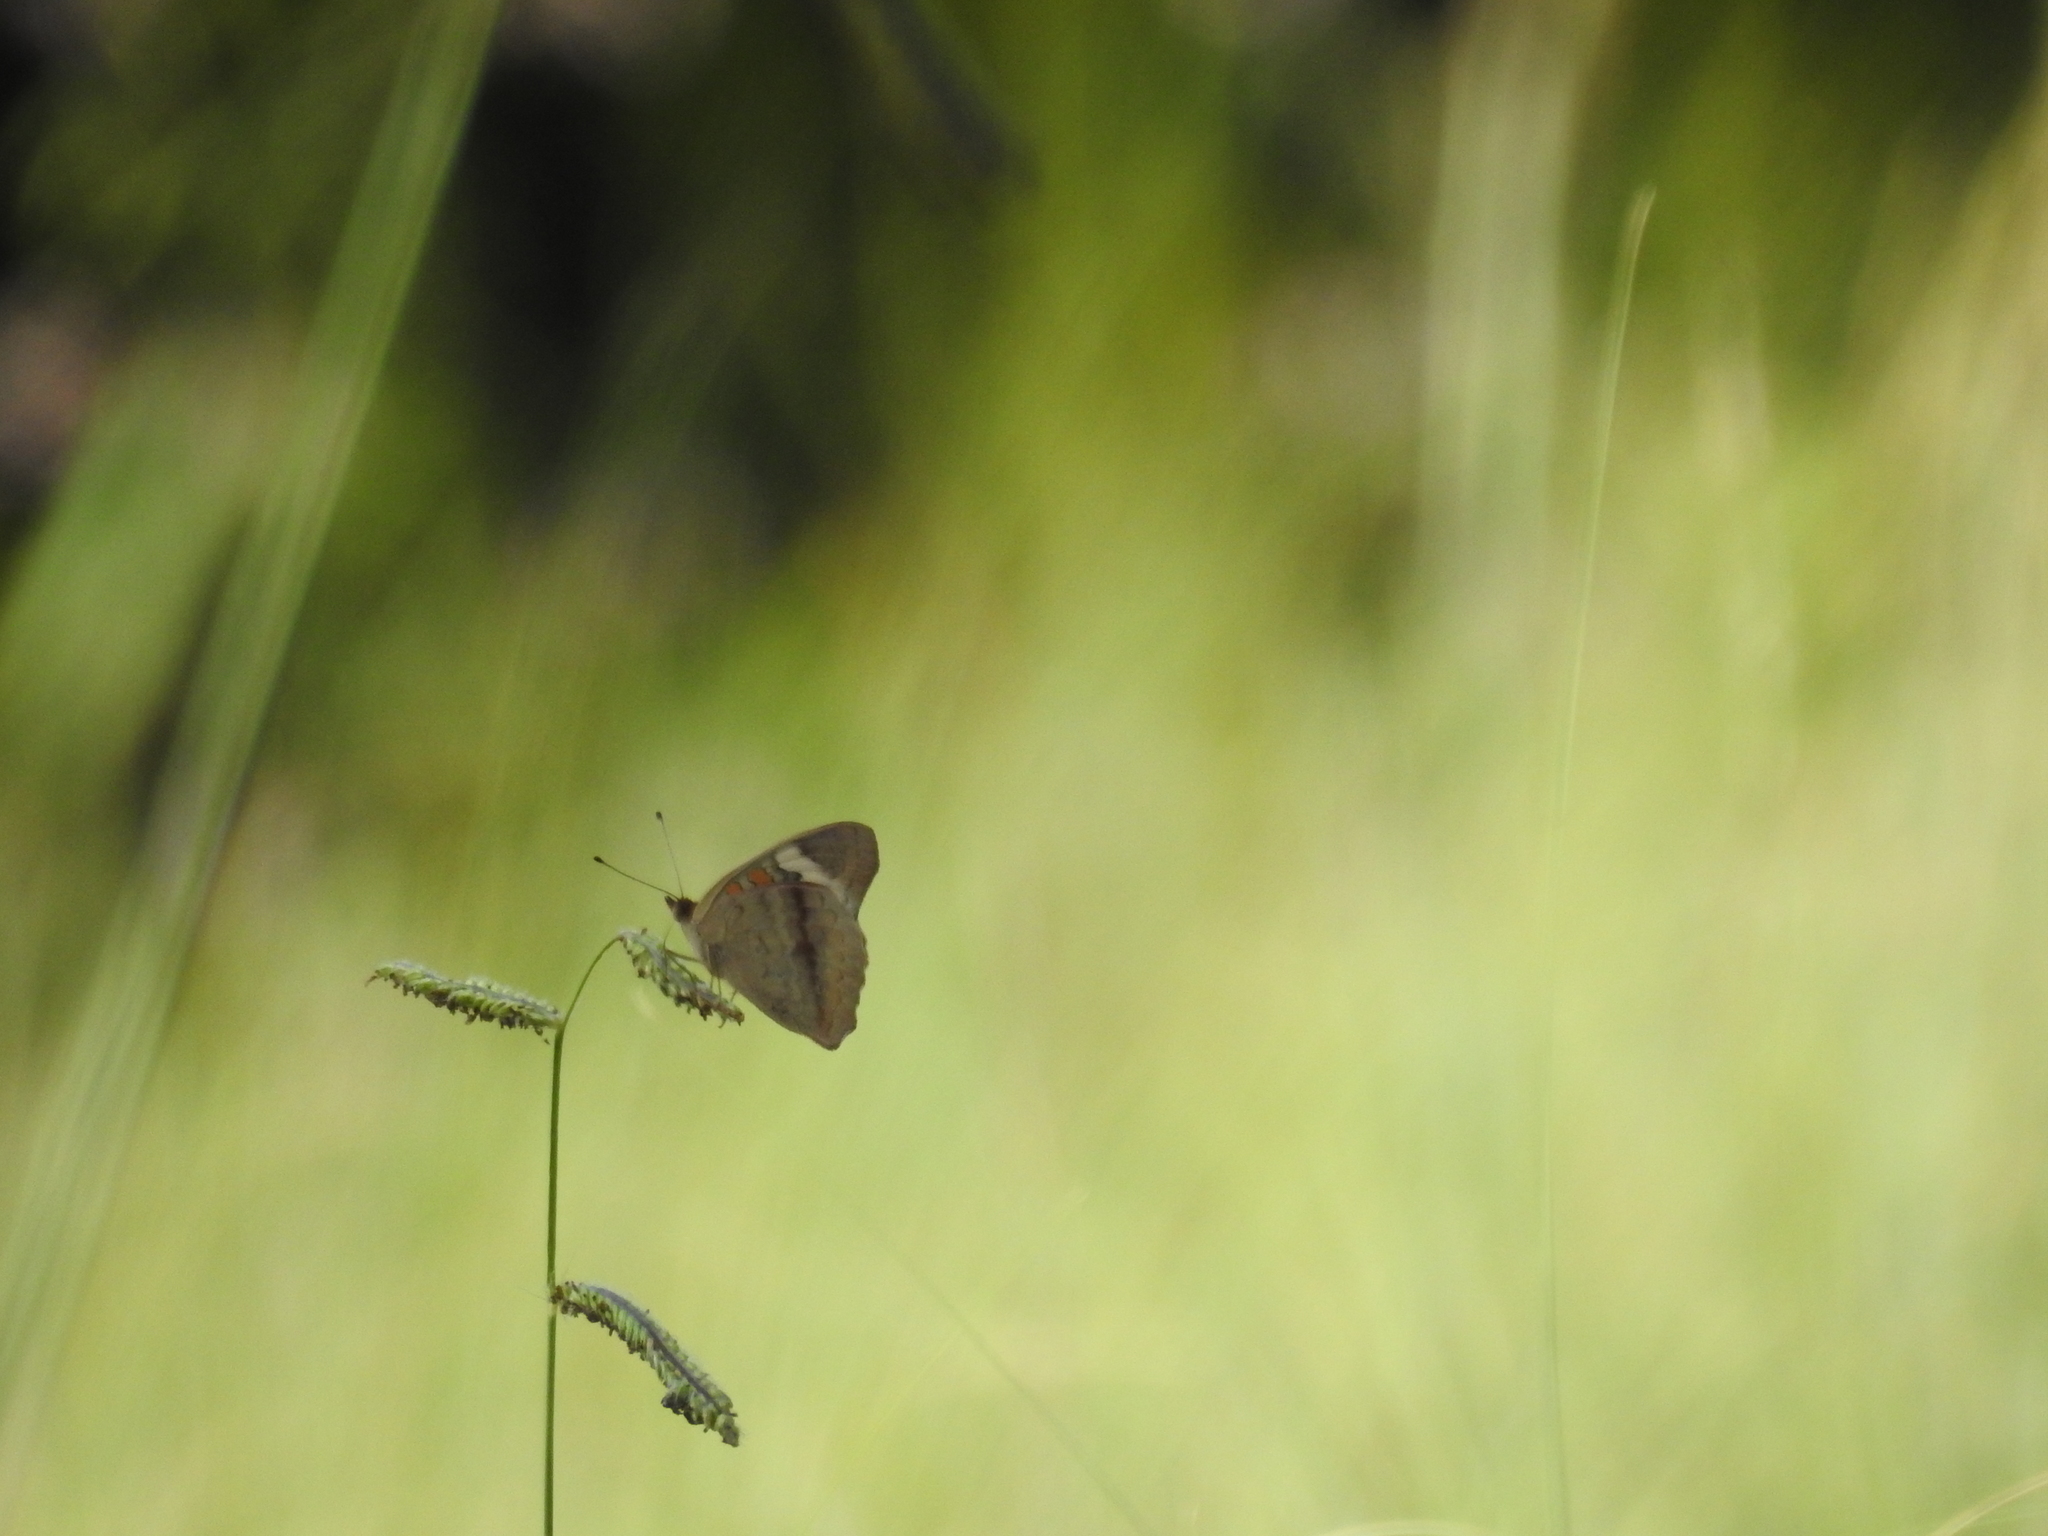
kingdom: Animalia
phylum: Arthropoda
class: Insecta
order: Lepidoptera
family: Nymphalidae
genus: Junonia
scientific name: Junonia coenia
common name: Common buckeye
